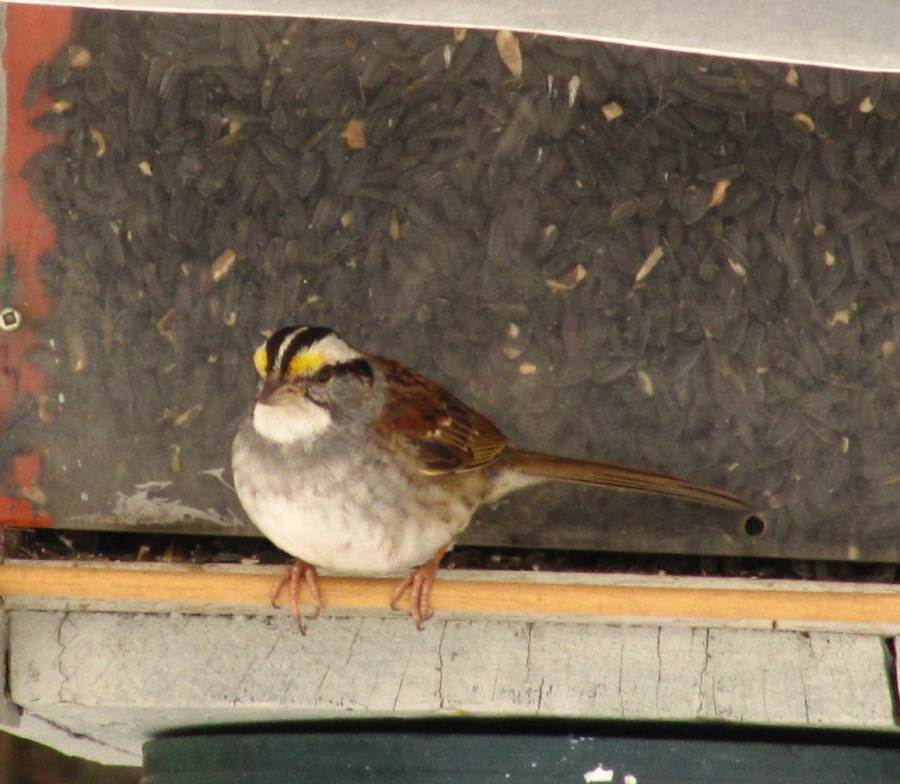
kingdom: Animalia
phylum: Chordata
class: Aves
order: Passeriformes
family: Passerellidae
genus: Zonotrichia
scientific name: Zonotrichia albicollis
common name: White-throated sparrow
